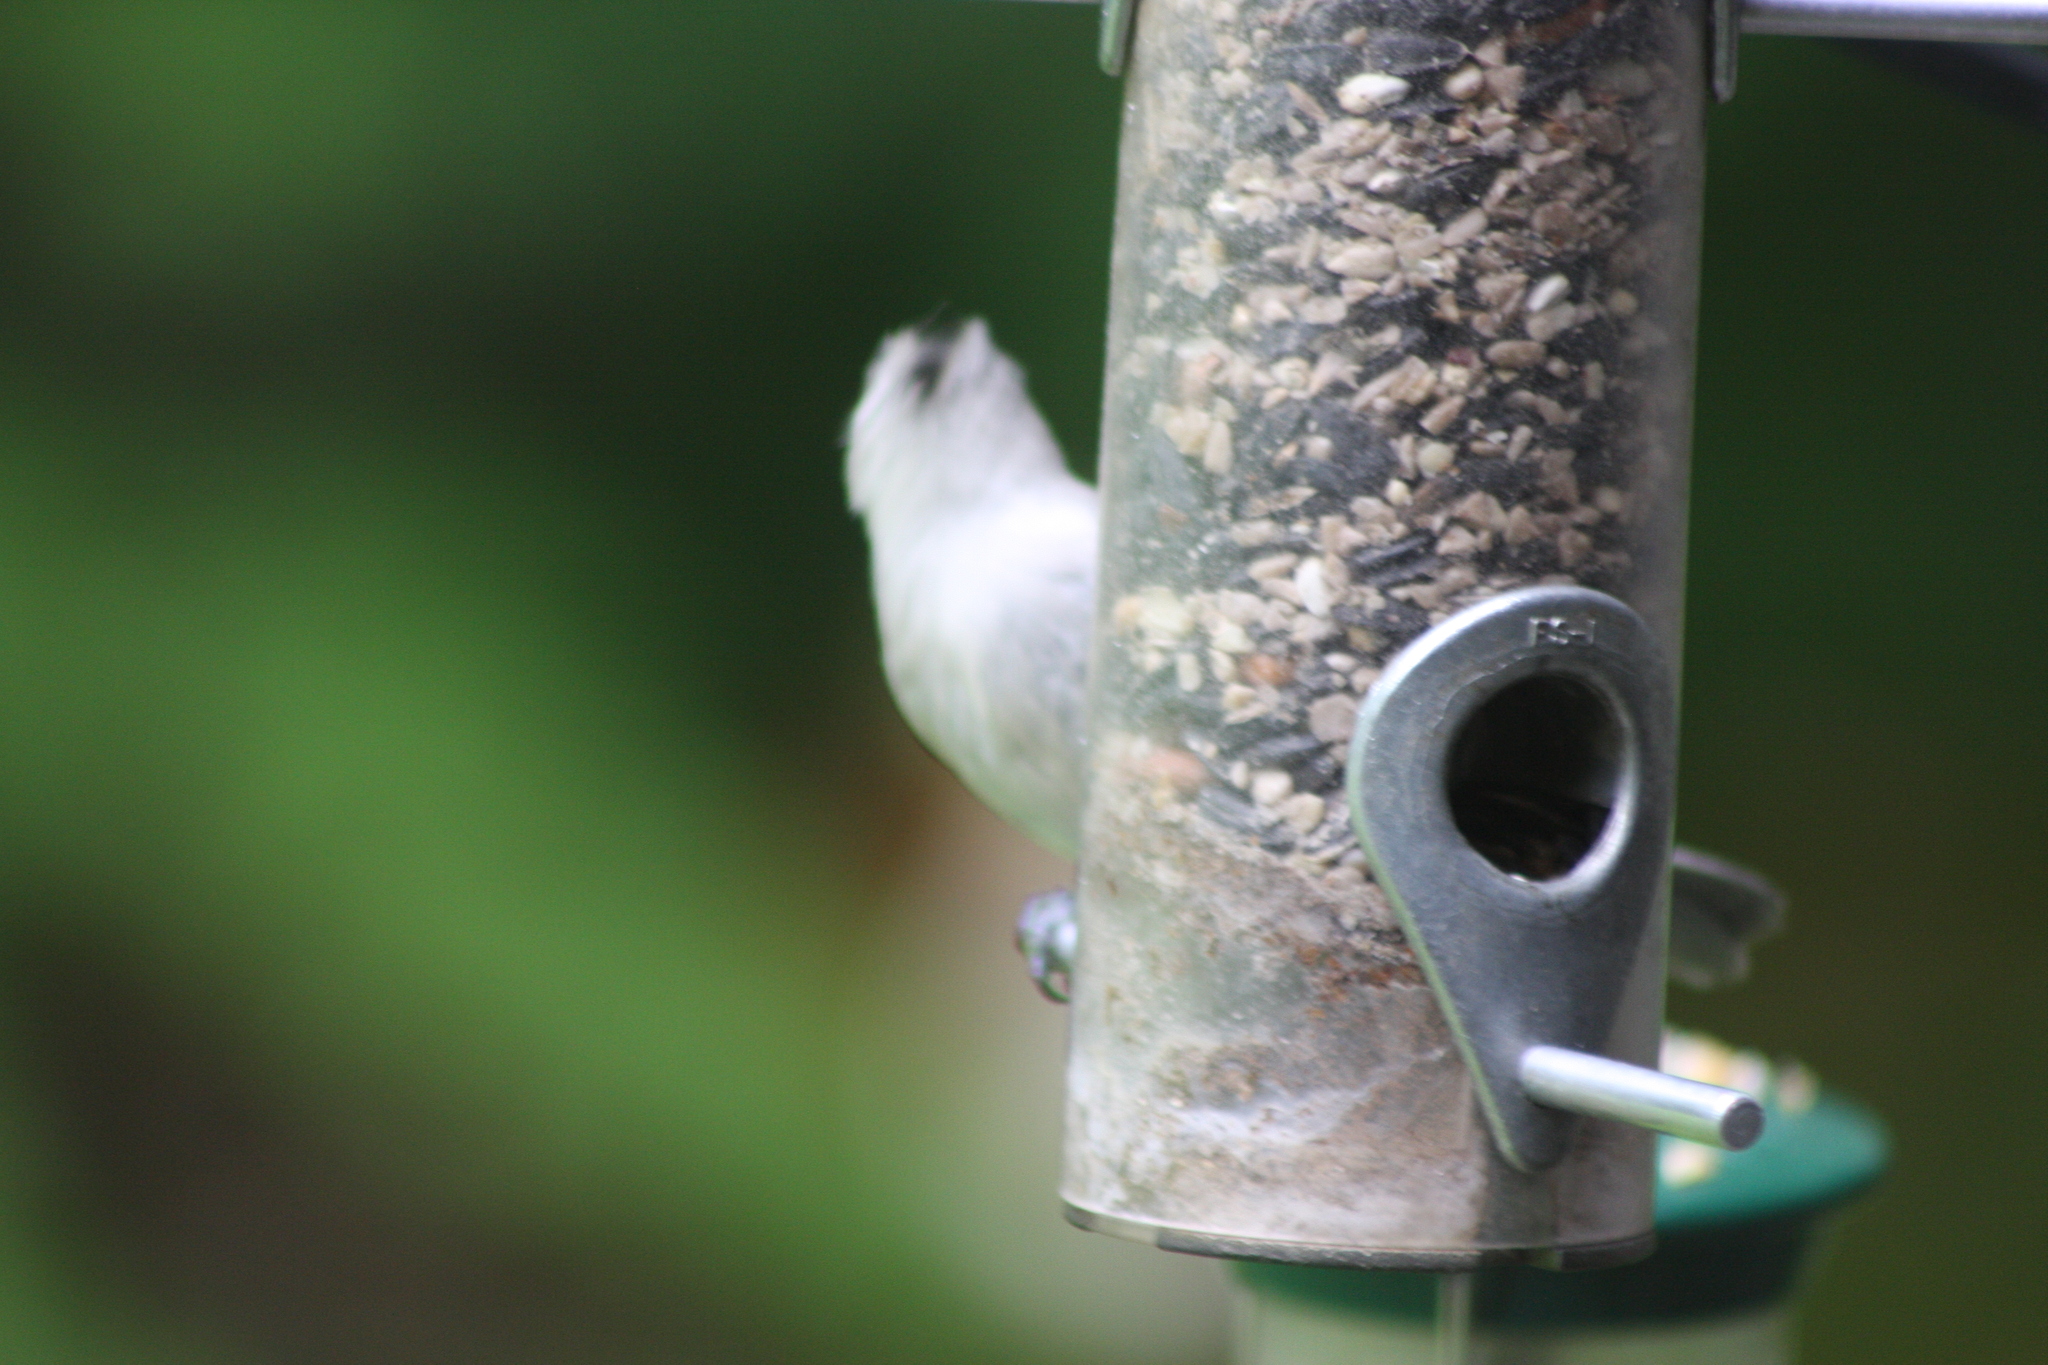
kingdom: Animalia
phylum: Chordata
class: Aves
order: Passeriformes
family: Paridae
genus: Baeolophus
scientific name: Baeolophus bicolor
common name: Tufted titmouse
